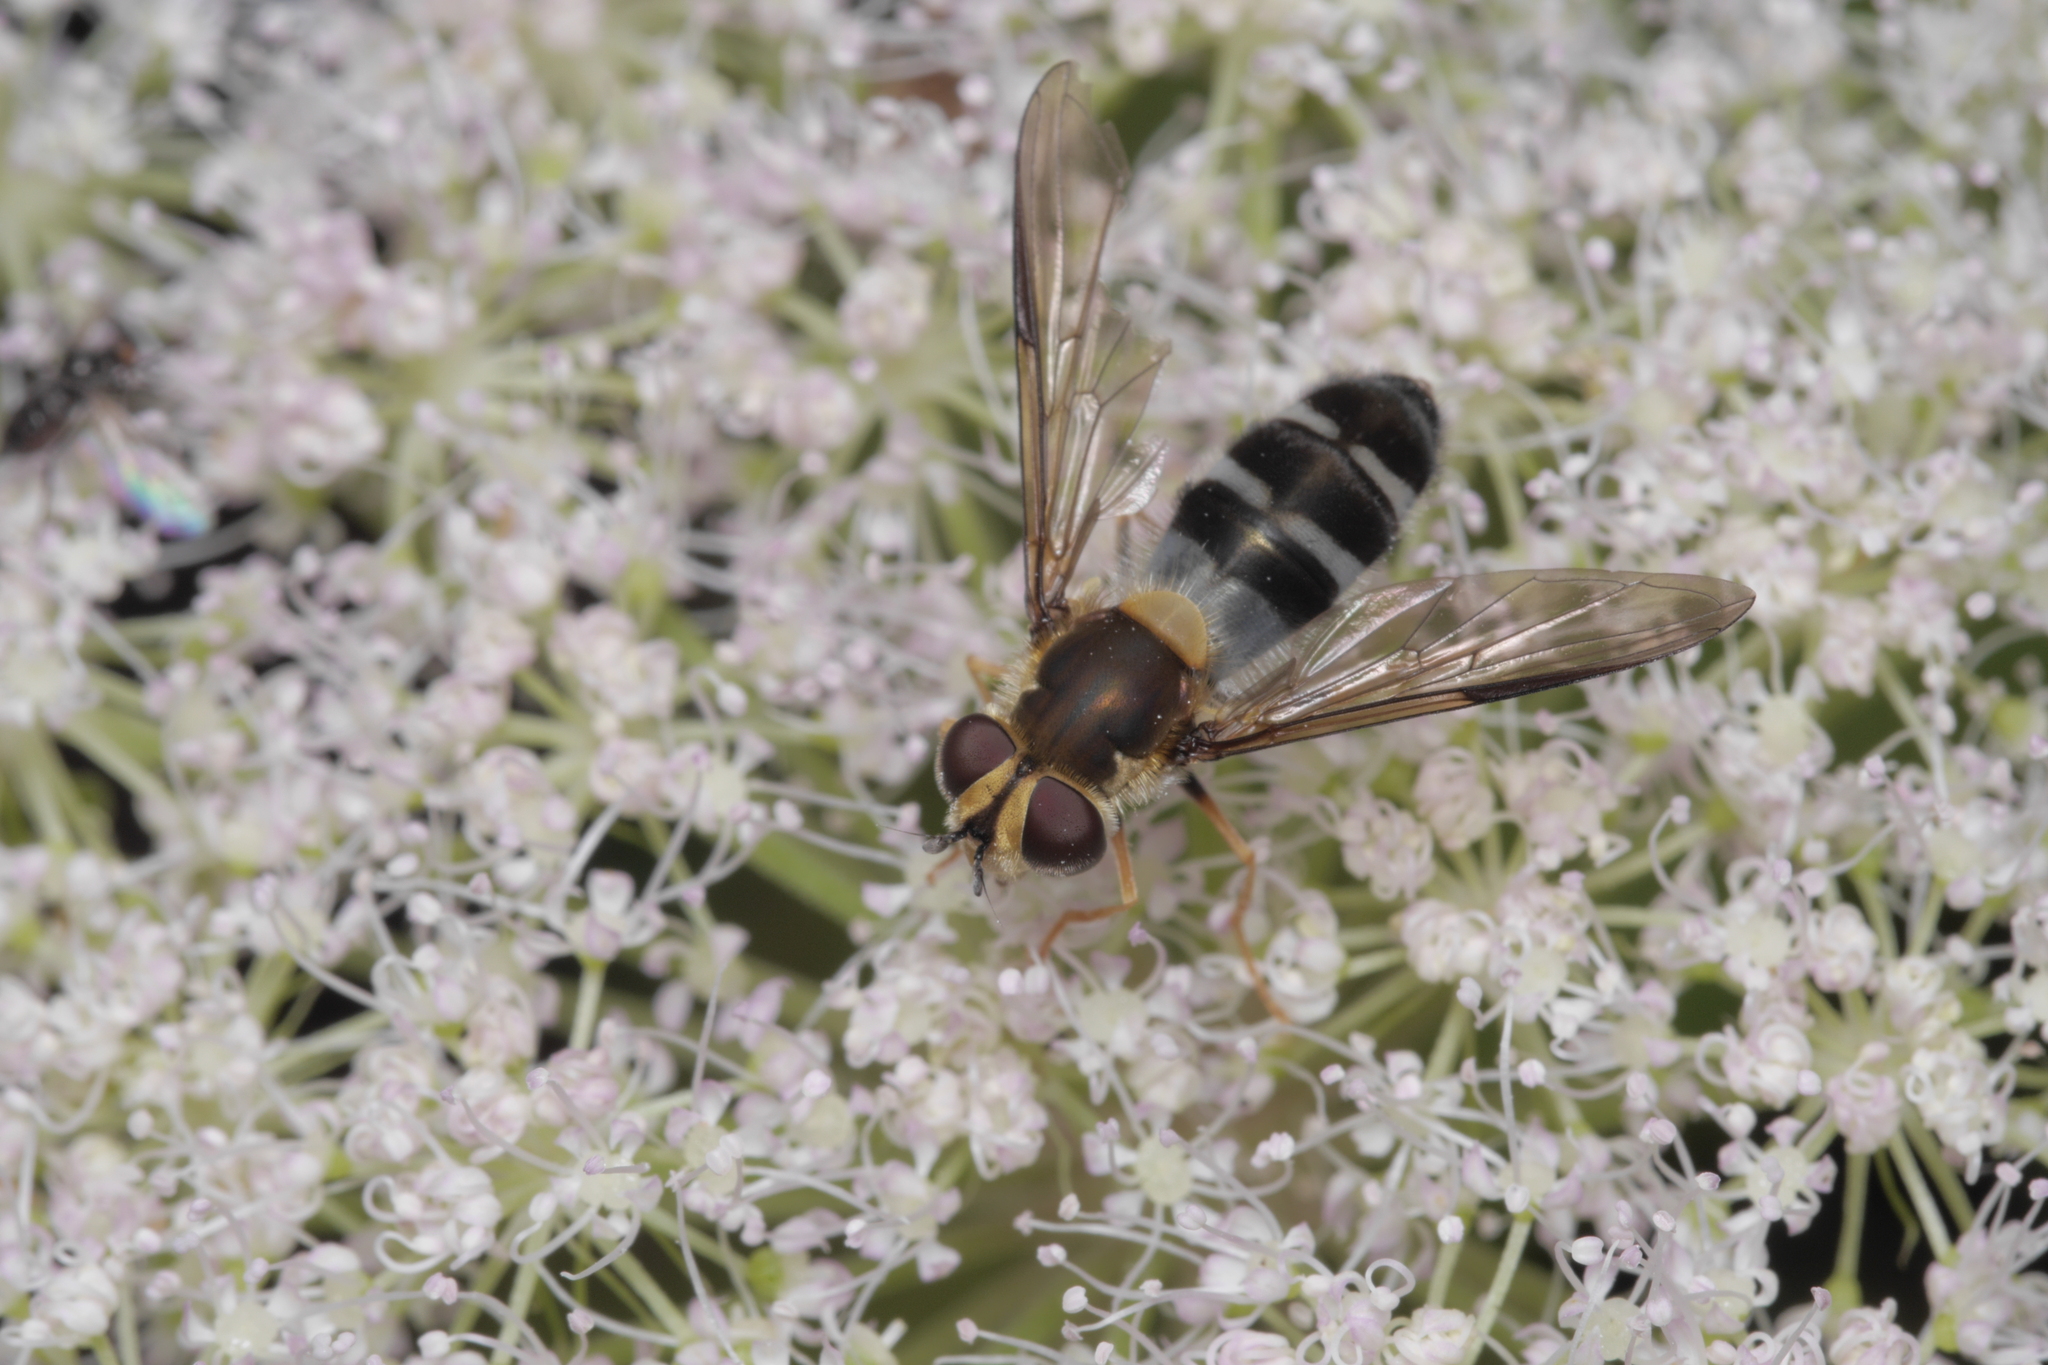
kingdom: Animalia
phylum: Arthropoda
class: Insecta
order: Diptera
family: Syrphidae
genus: Leucozona
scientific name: Leucozona glaucia
